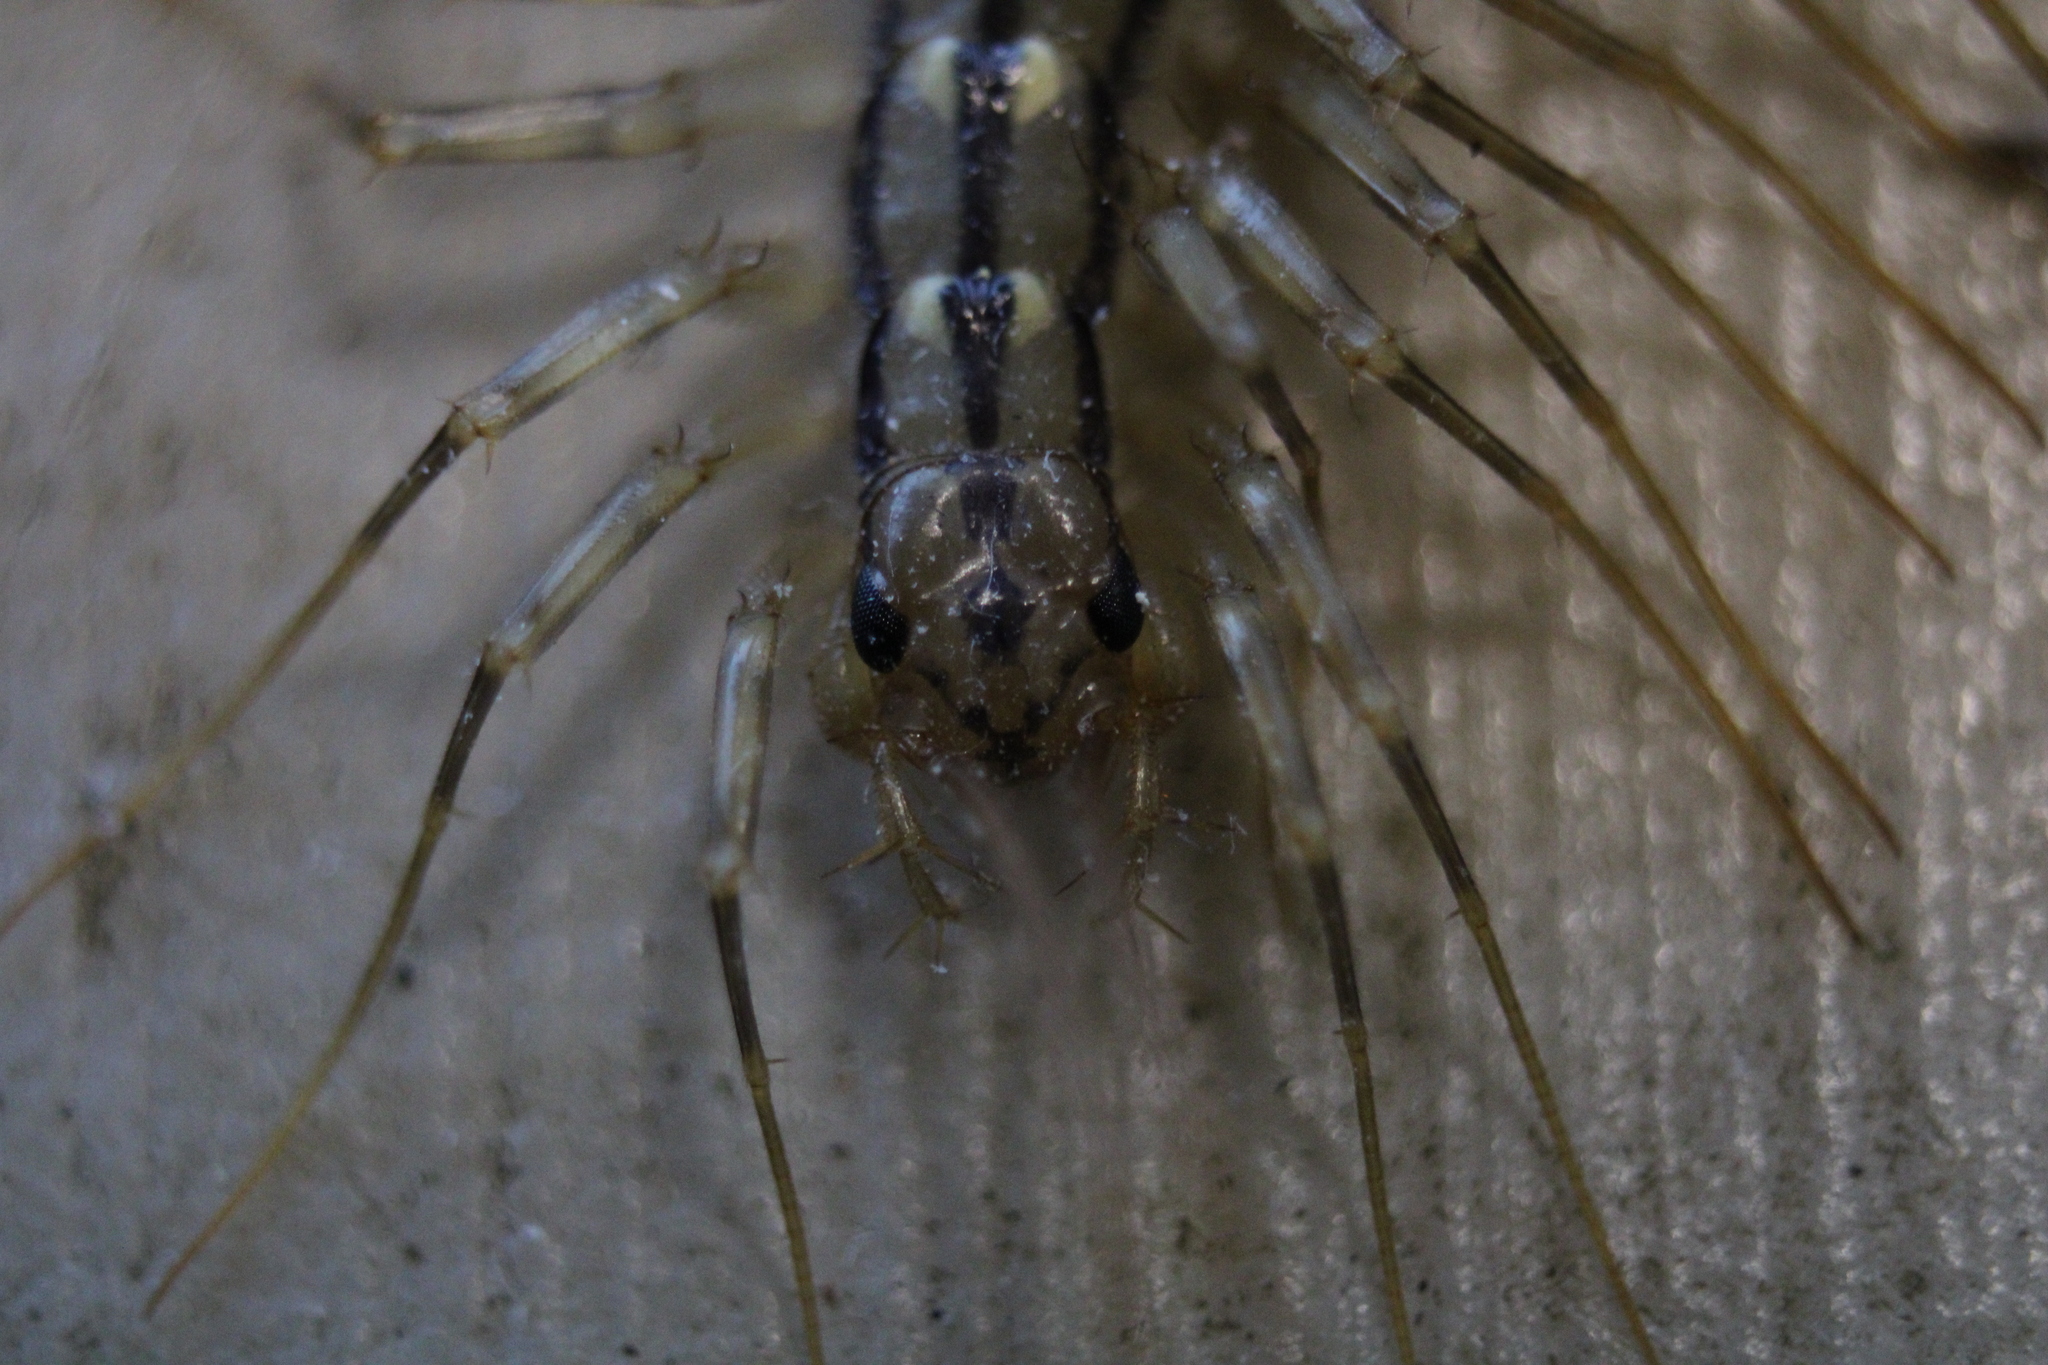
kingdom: Animalia
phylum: Arthropoda
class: Chilopoda
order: Scutigeromorpha
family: Scutigeridae
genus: Scutigera
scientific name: Scutigera coleoptrata
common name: House centipede
